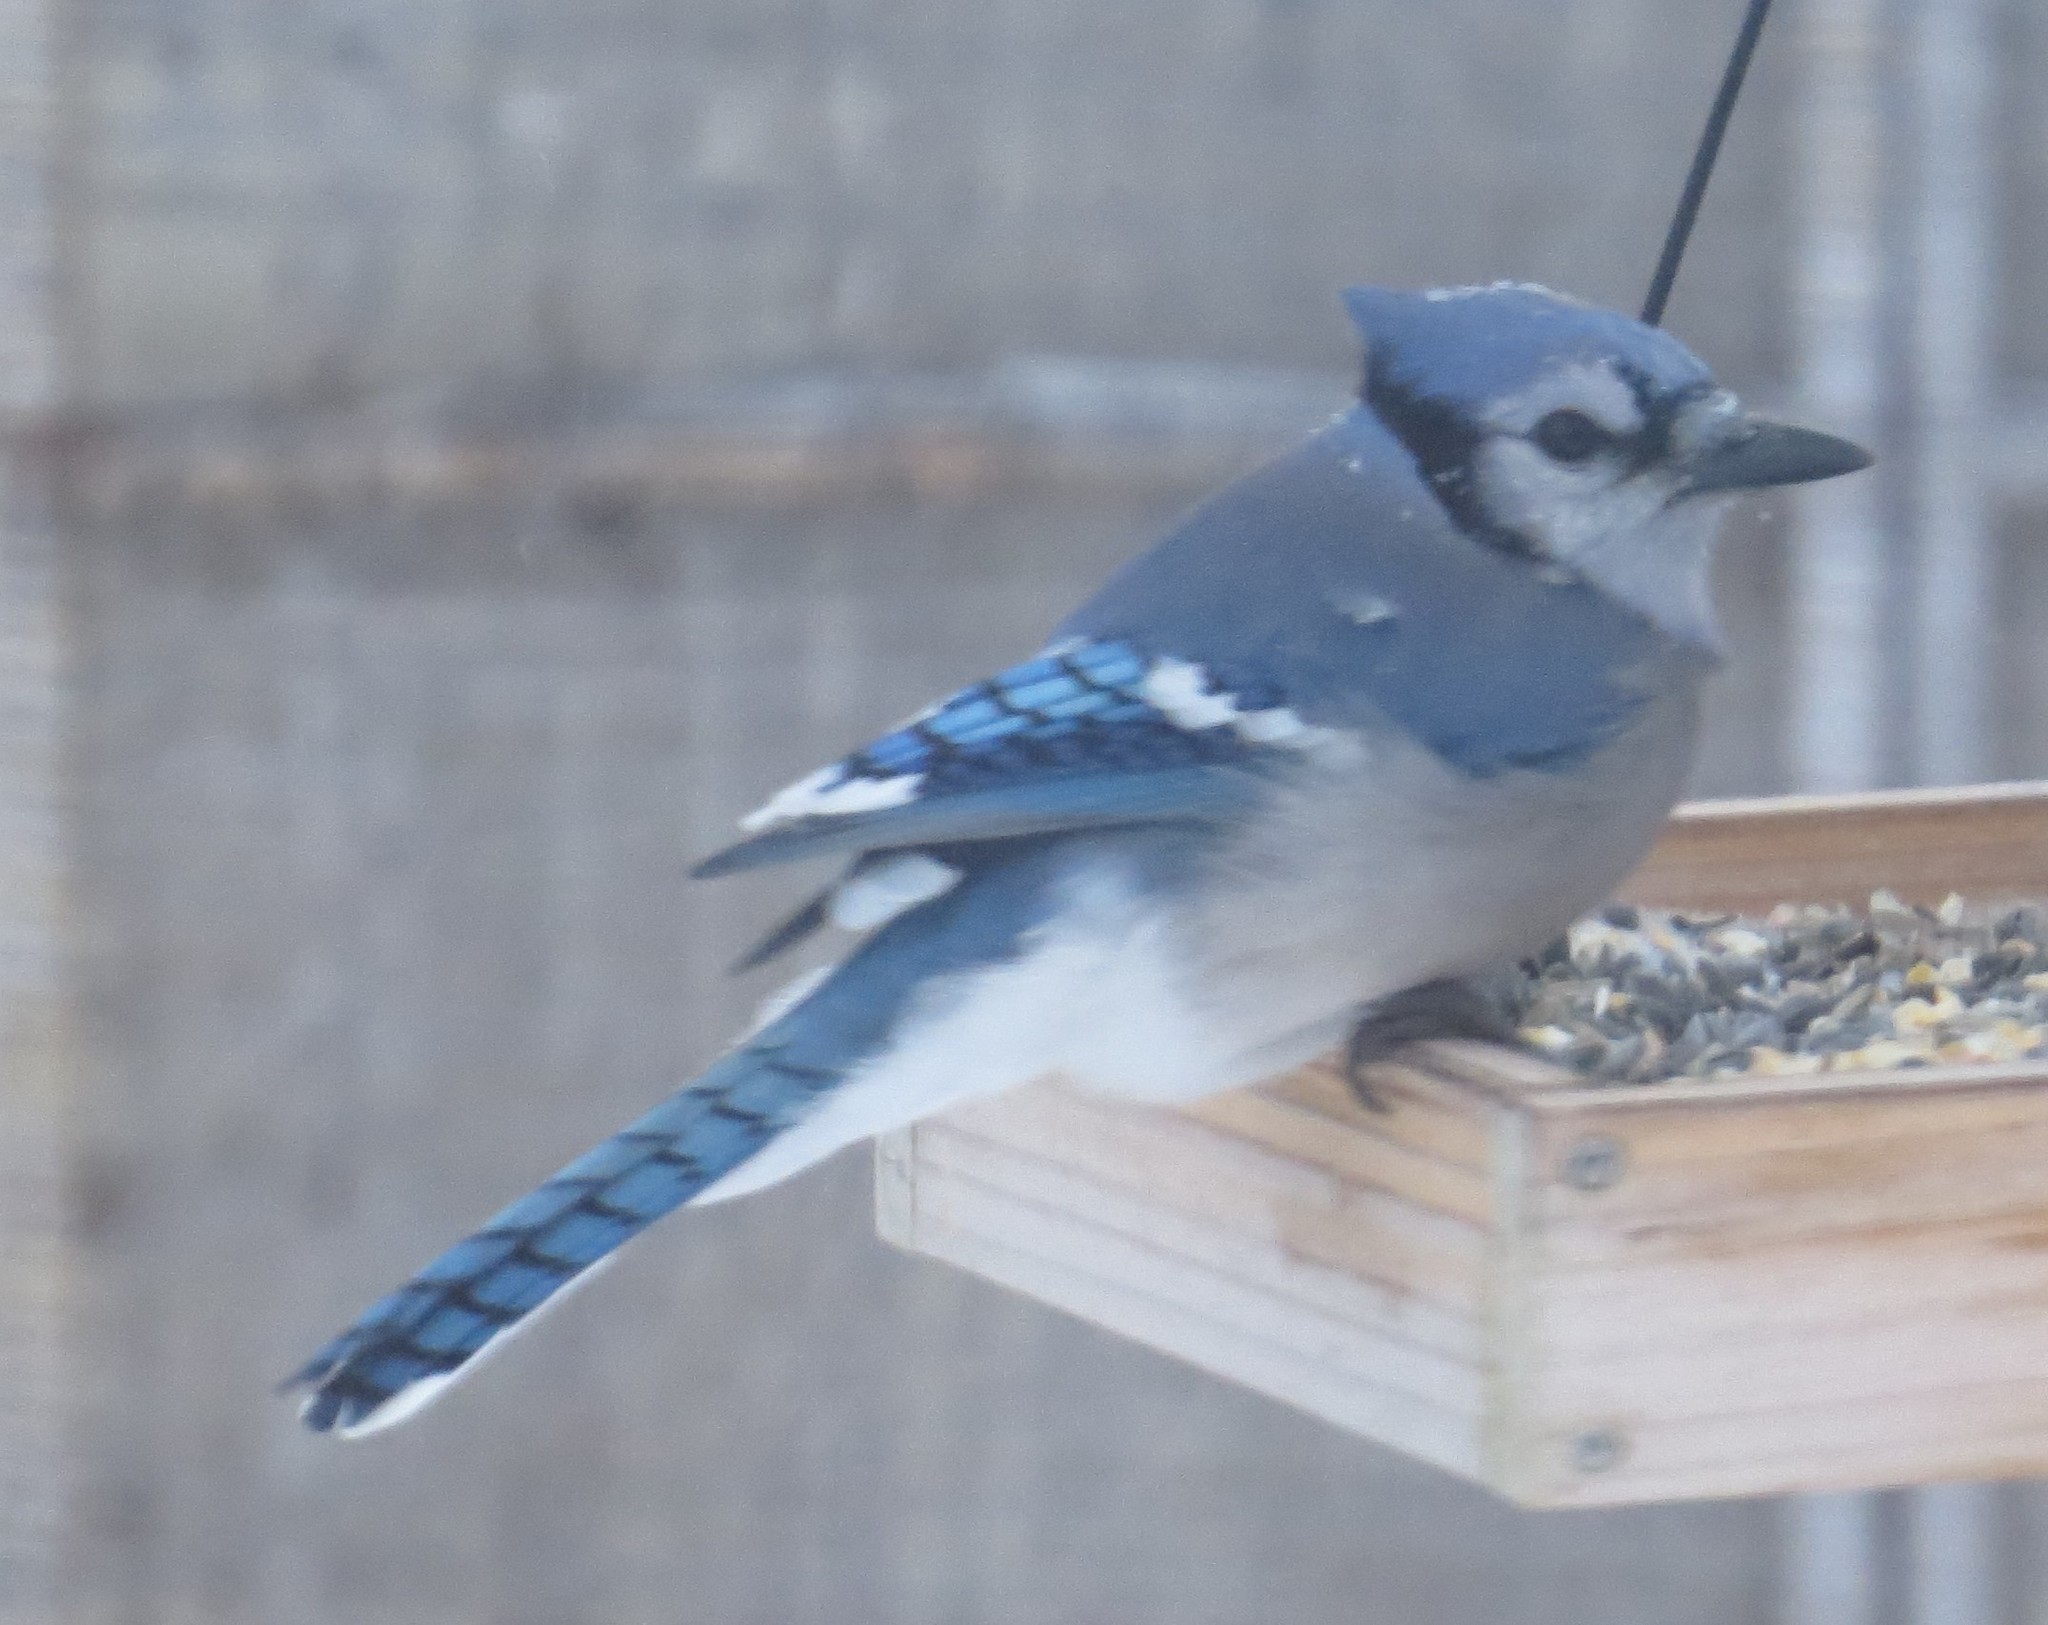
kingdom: Animalia
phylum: Chordata
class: Aves
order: Passeriformes
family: Corvidae
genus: Cyanocitta
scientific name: Cyanocitta cristata
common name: Blue jay
